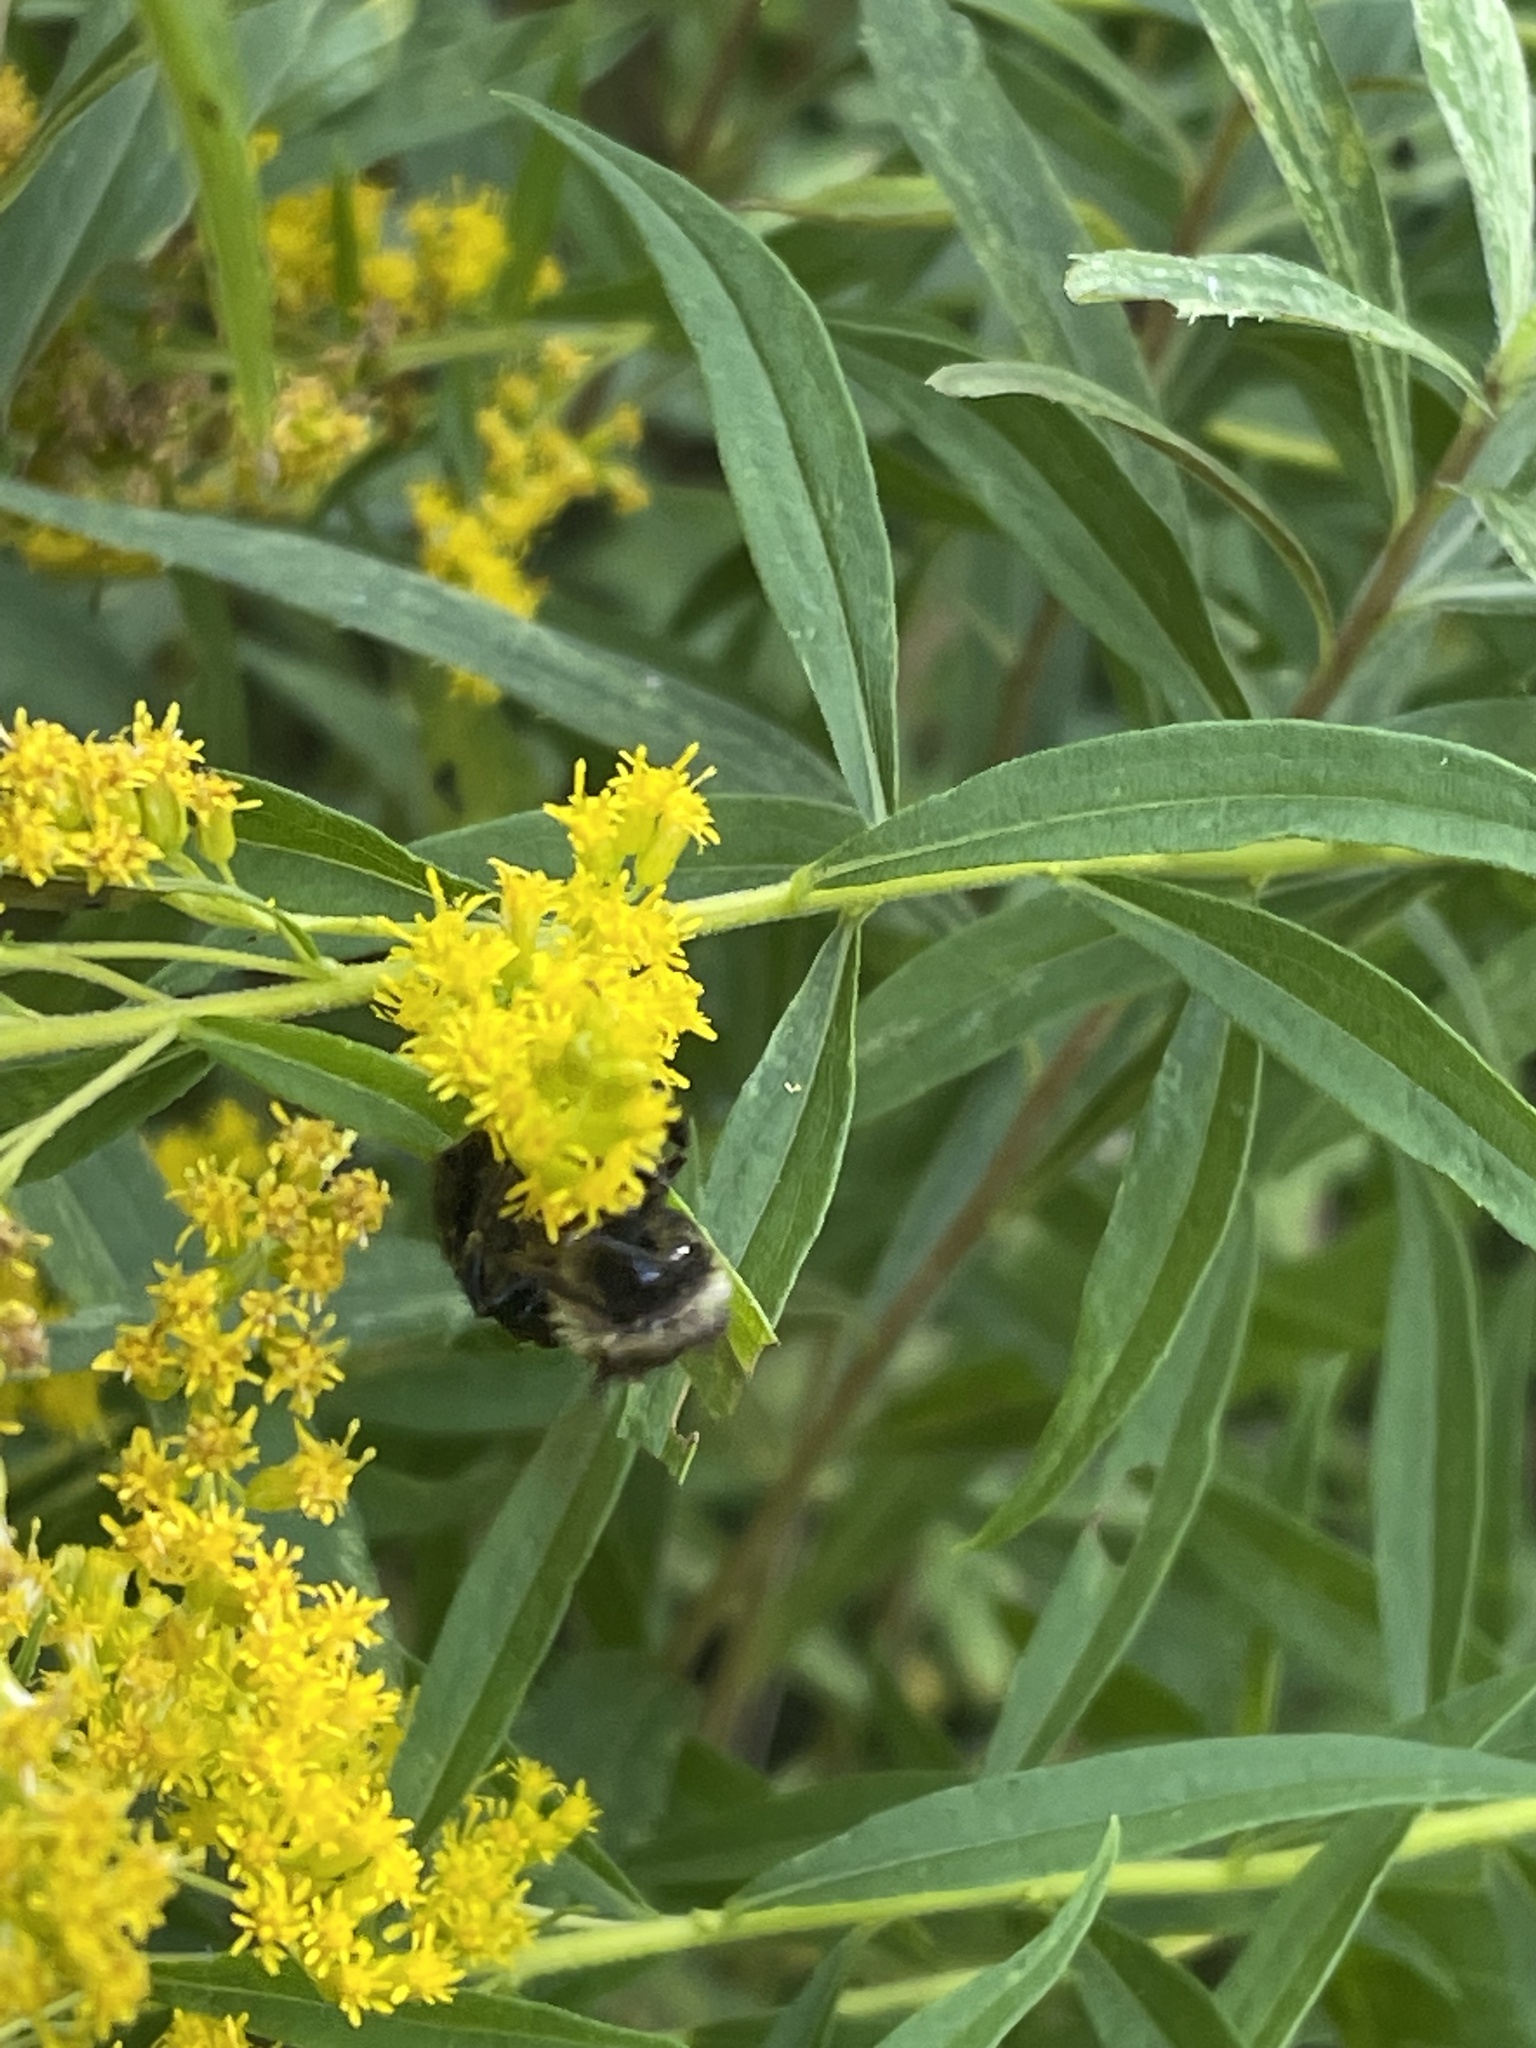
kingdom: Animalia
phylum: Arthropoda
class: Insecta
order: Hymenoptera
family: Apidae
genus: Bombus
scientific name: Bombus
